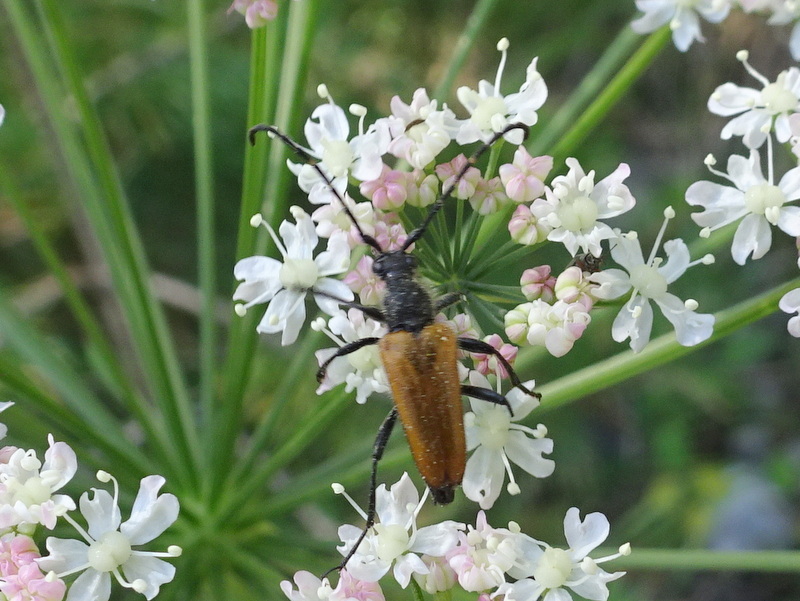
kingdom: Animalia
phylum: Arthropoda
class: Insecta
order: Coleoptera
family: Cerambycidae
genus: Paracorymbia
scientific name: Paracorymbia hybrida
